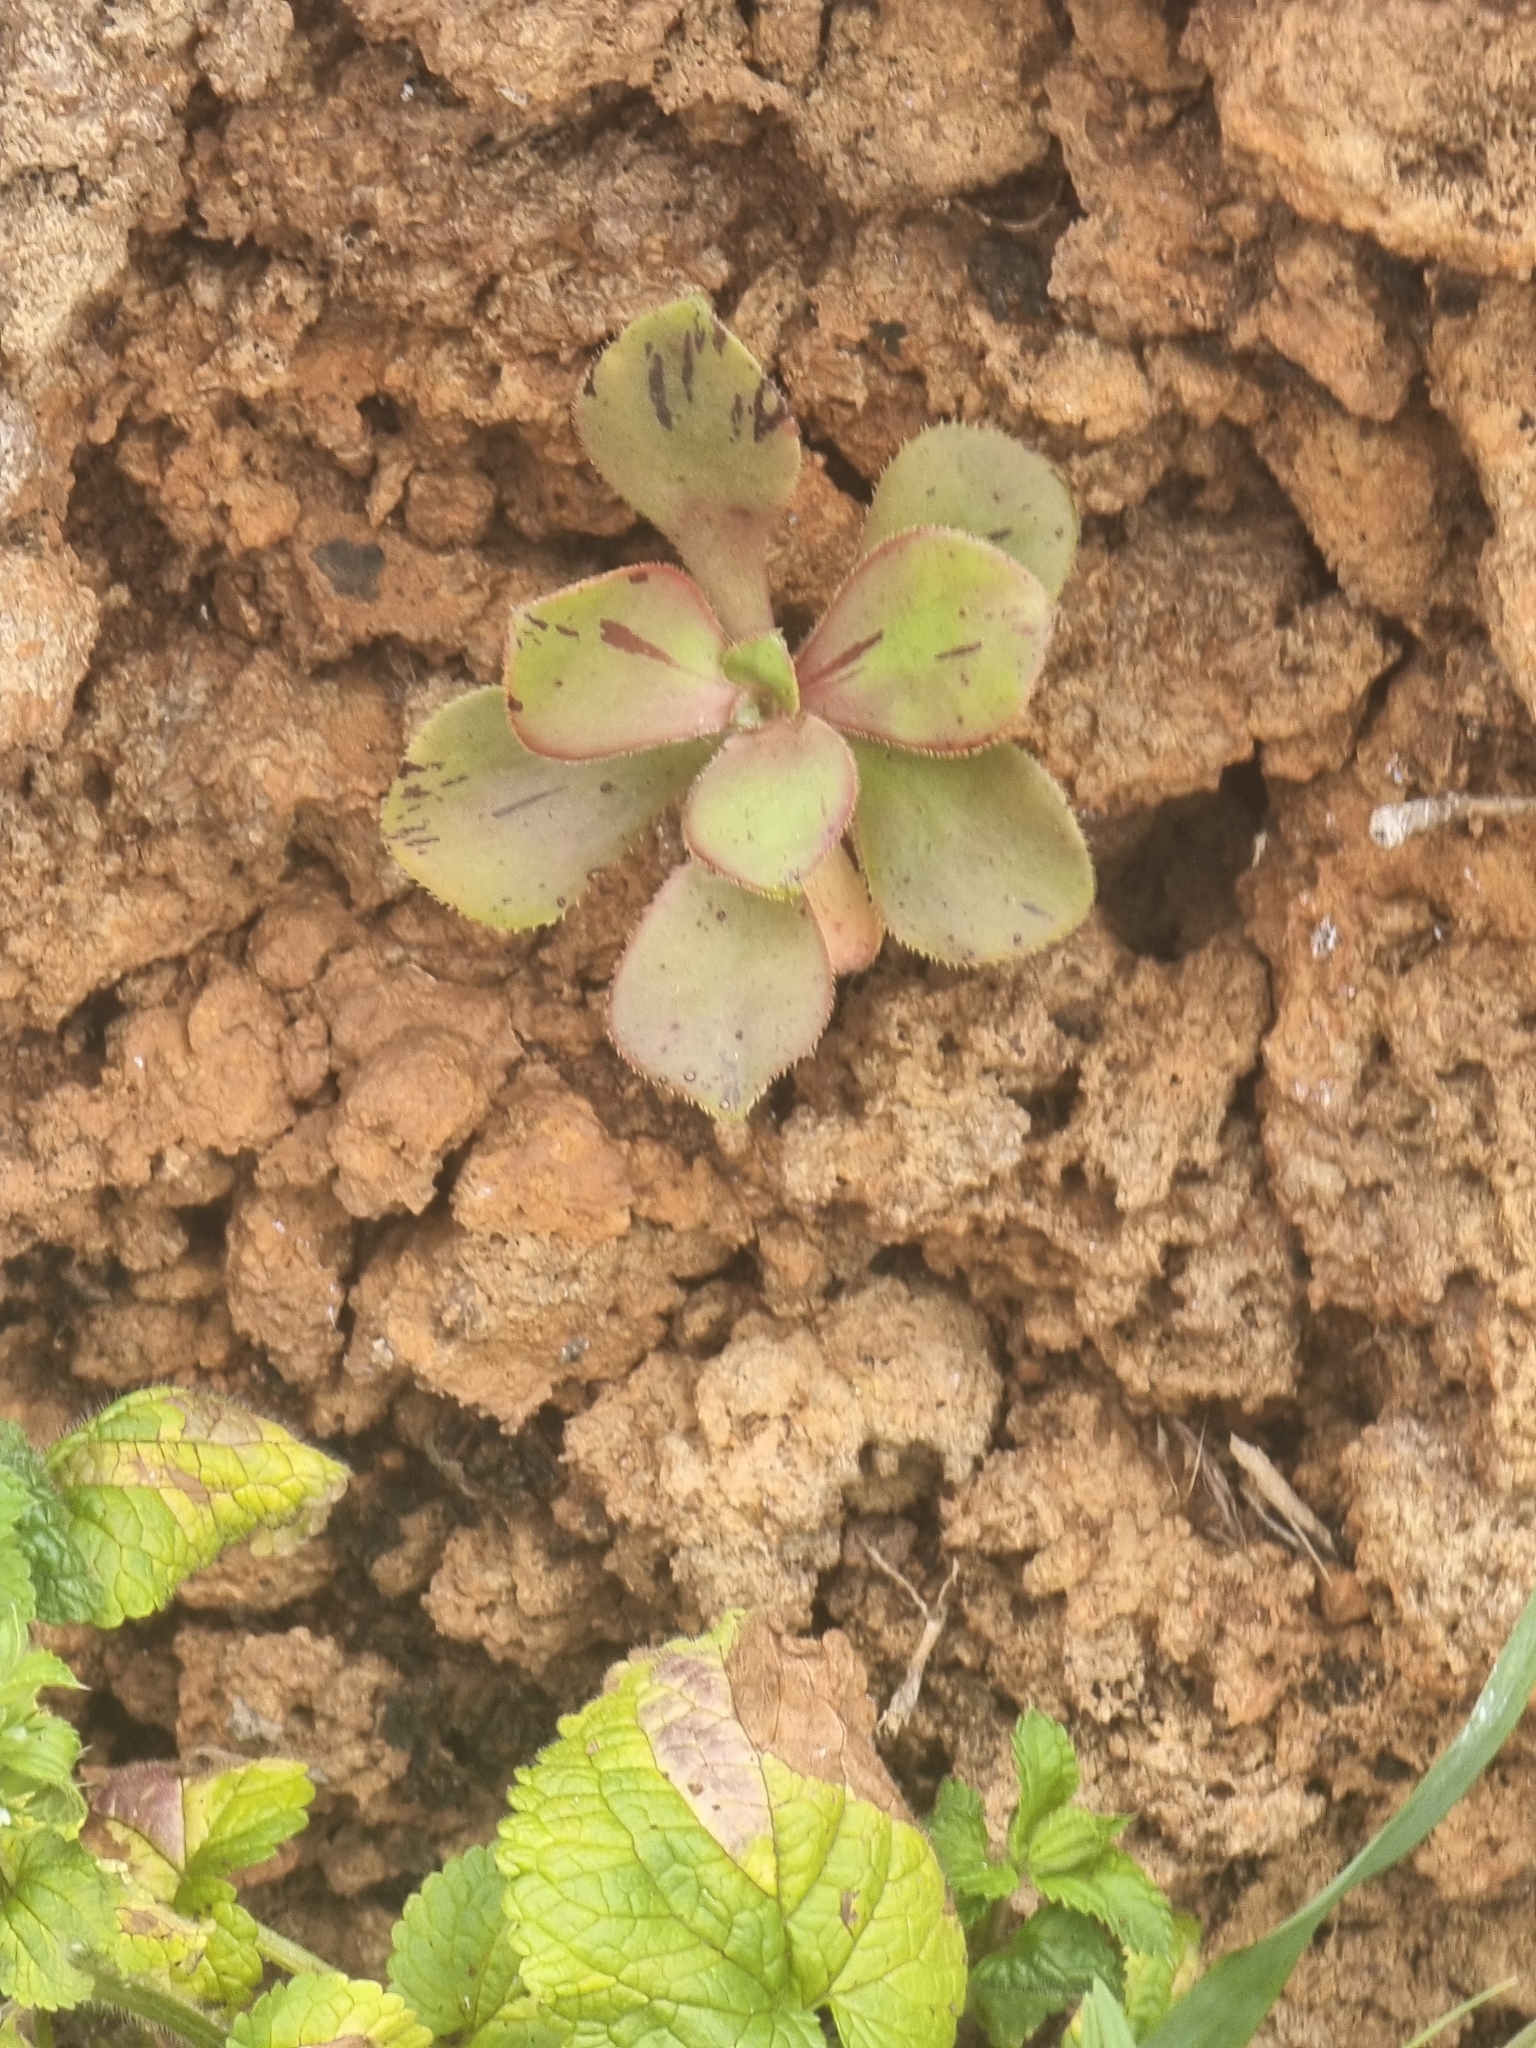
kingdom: Plantae
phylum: Tracheophyta
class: Magnoliopsida
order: Saxifragales
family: Crassulaceae
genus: Aeonium
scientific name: Aeonium glutinosum
